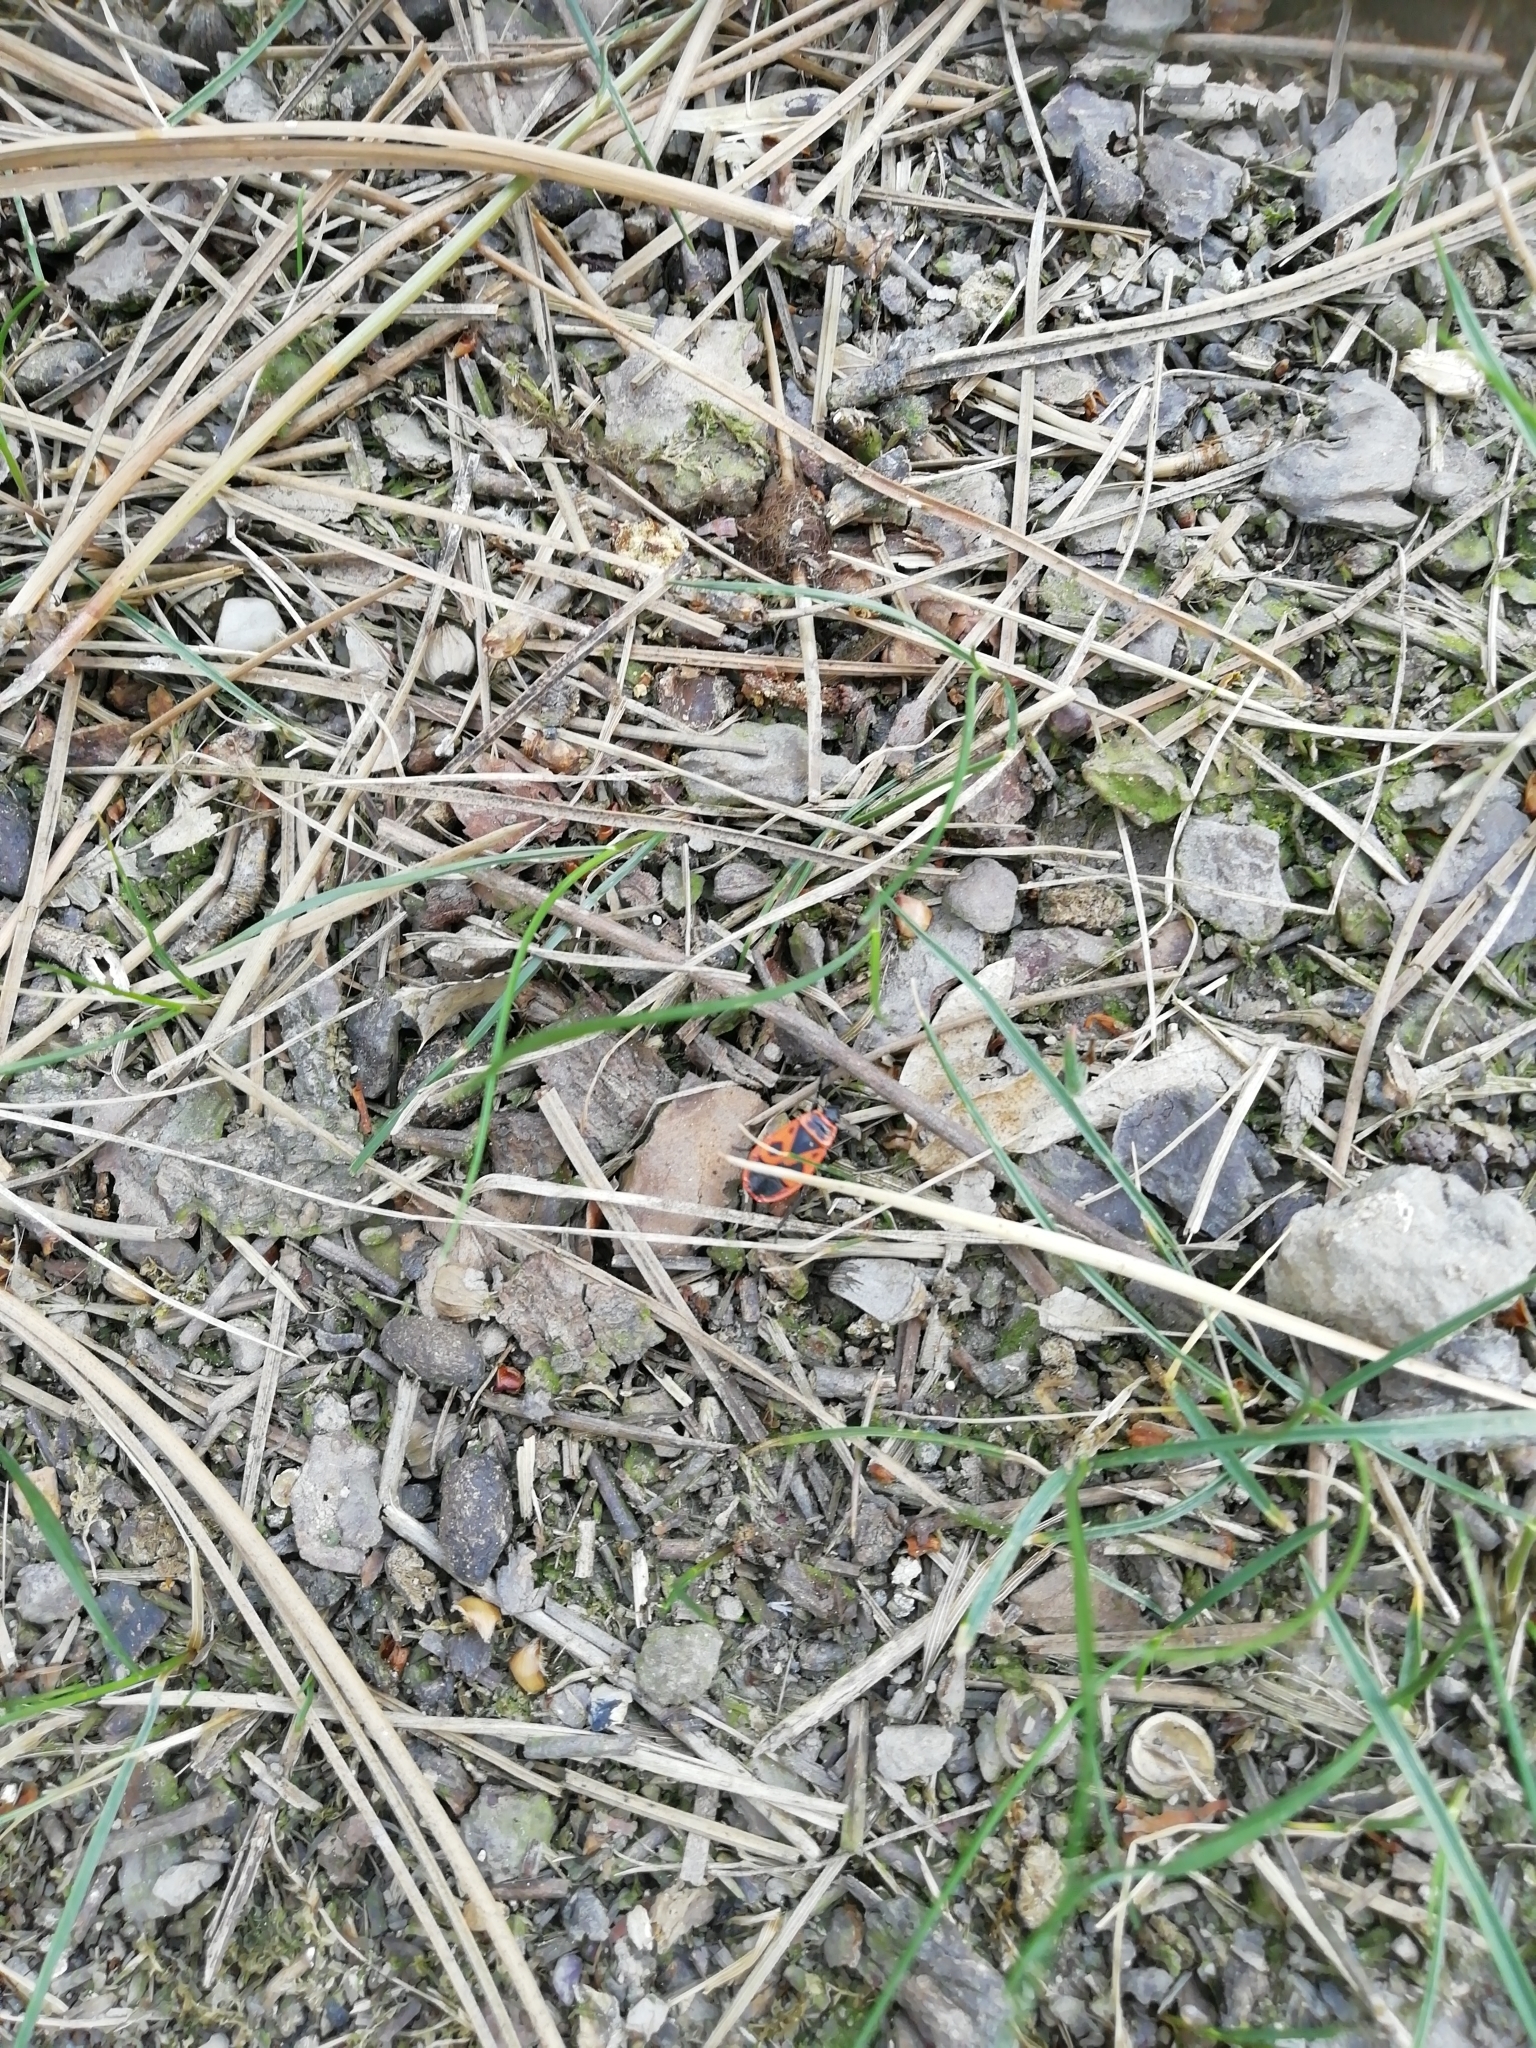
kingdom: Animalia
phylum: Arthropoda
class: Insecta
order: Hemiptera
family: Pyrrhocoridae
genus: Pyrrhocoris
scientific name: Pyrrhocoris apterus
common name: Firebug
